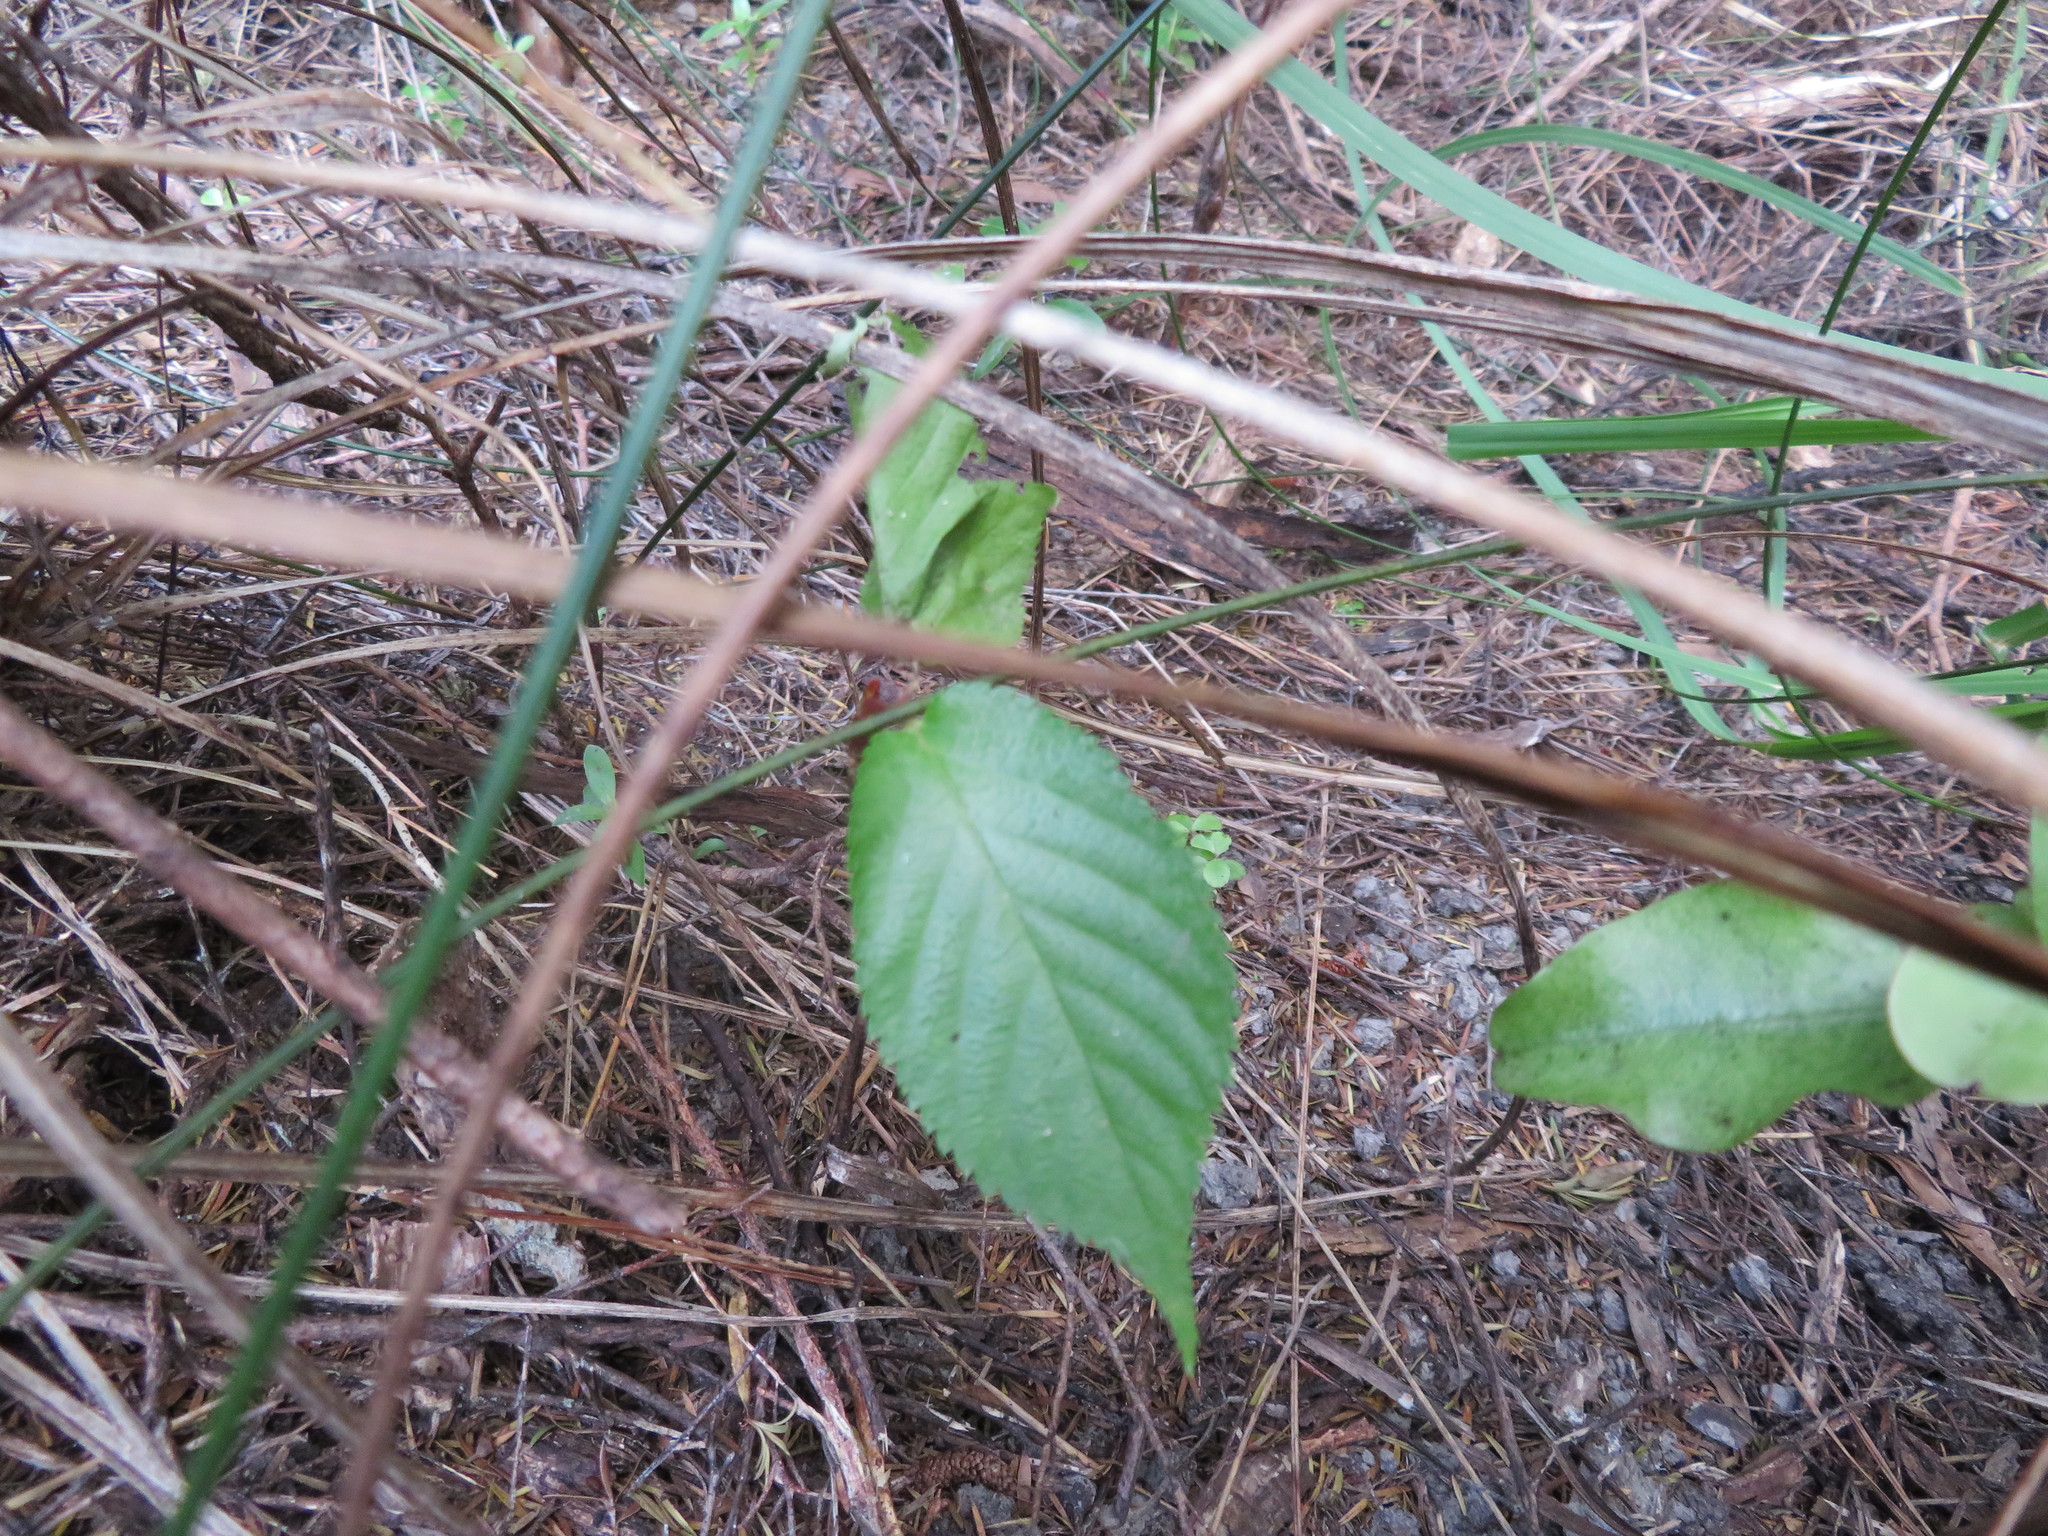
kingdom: Plantae
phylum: Tracheophyta
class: Magnoliopsida
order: Rosales
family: Rosaceae
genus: Prunus
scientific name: Prunus serrulata
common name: Japanese cherry
